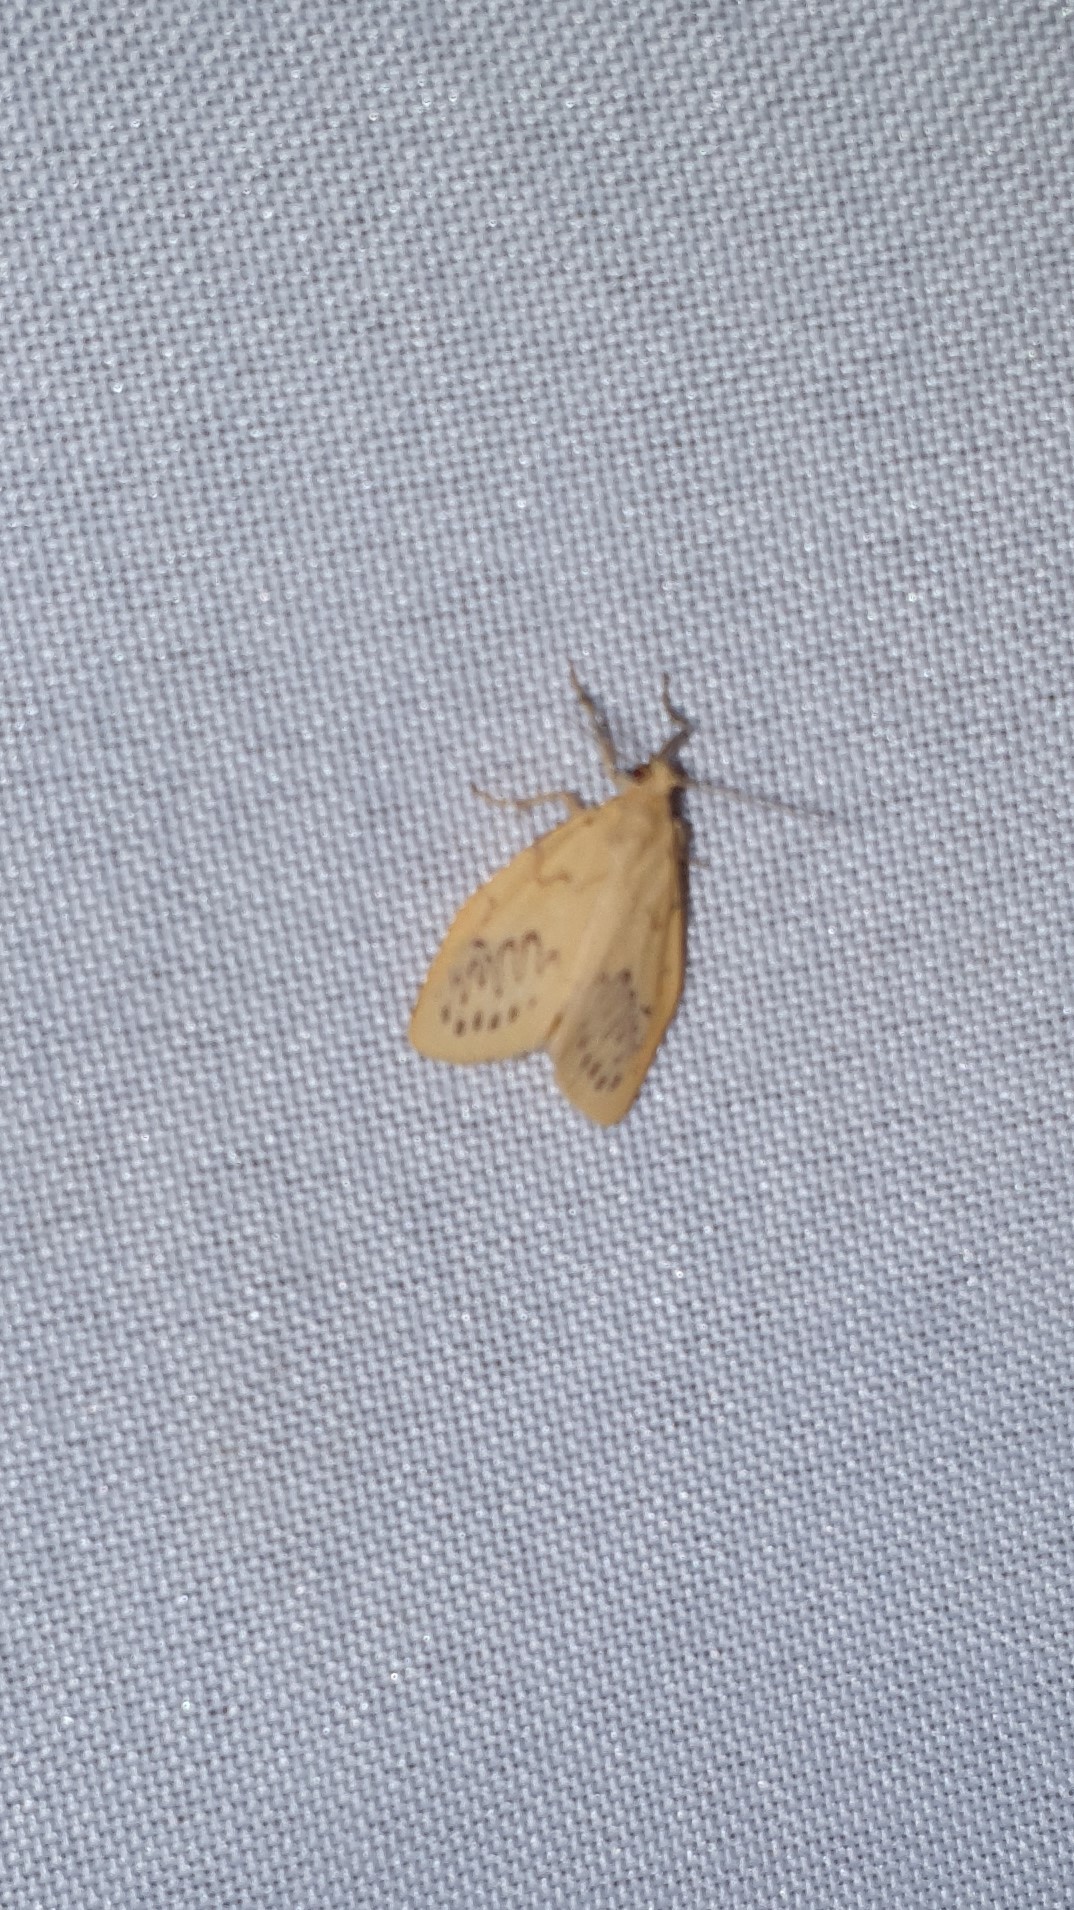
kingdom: Animalia
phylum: Arthropoda
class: Insecta
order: Lepidoptera
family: Erebidae
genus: Miltochrista
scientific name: Miltochrista miniata
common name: Rosy footman
